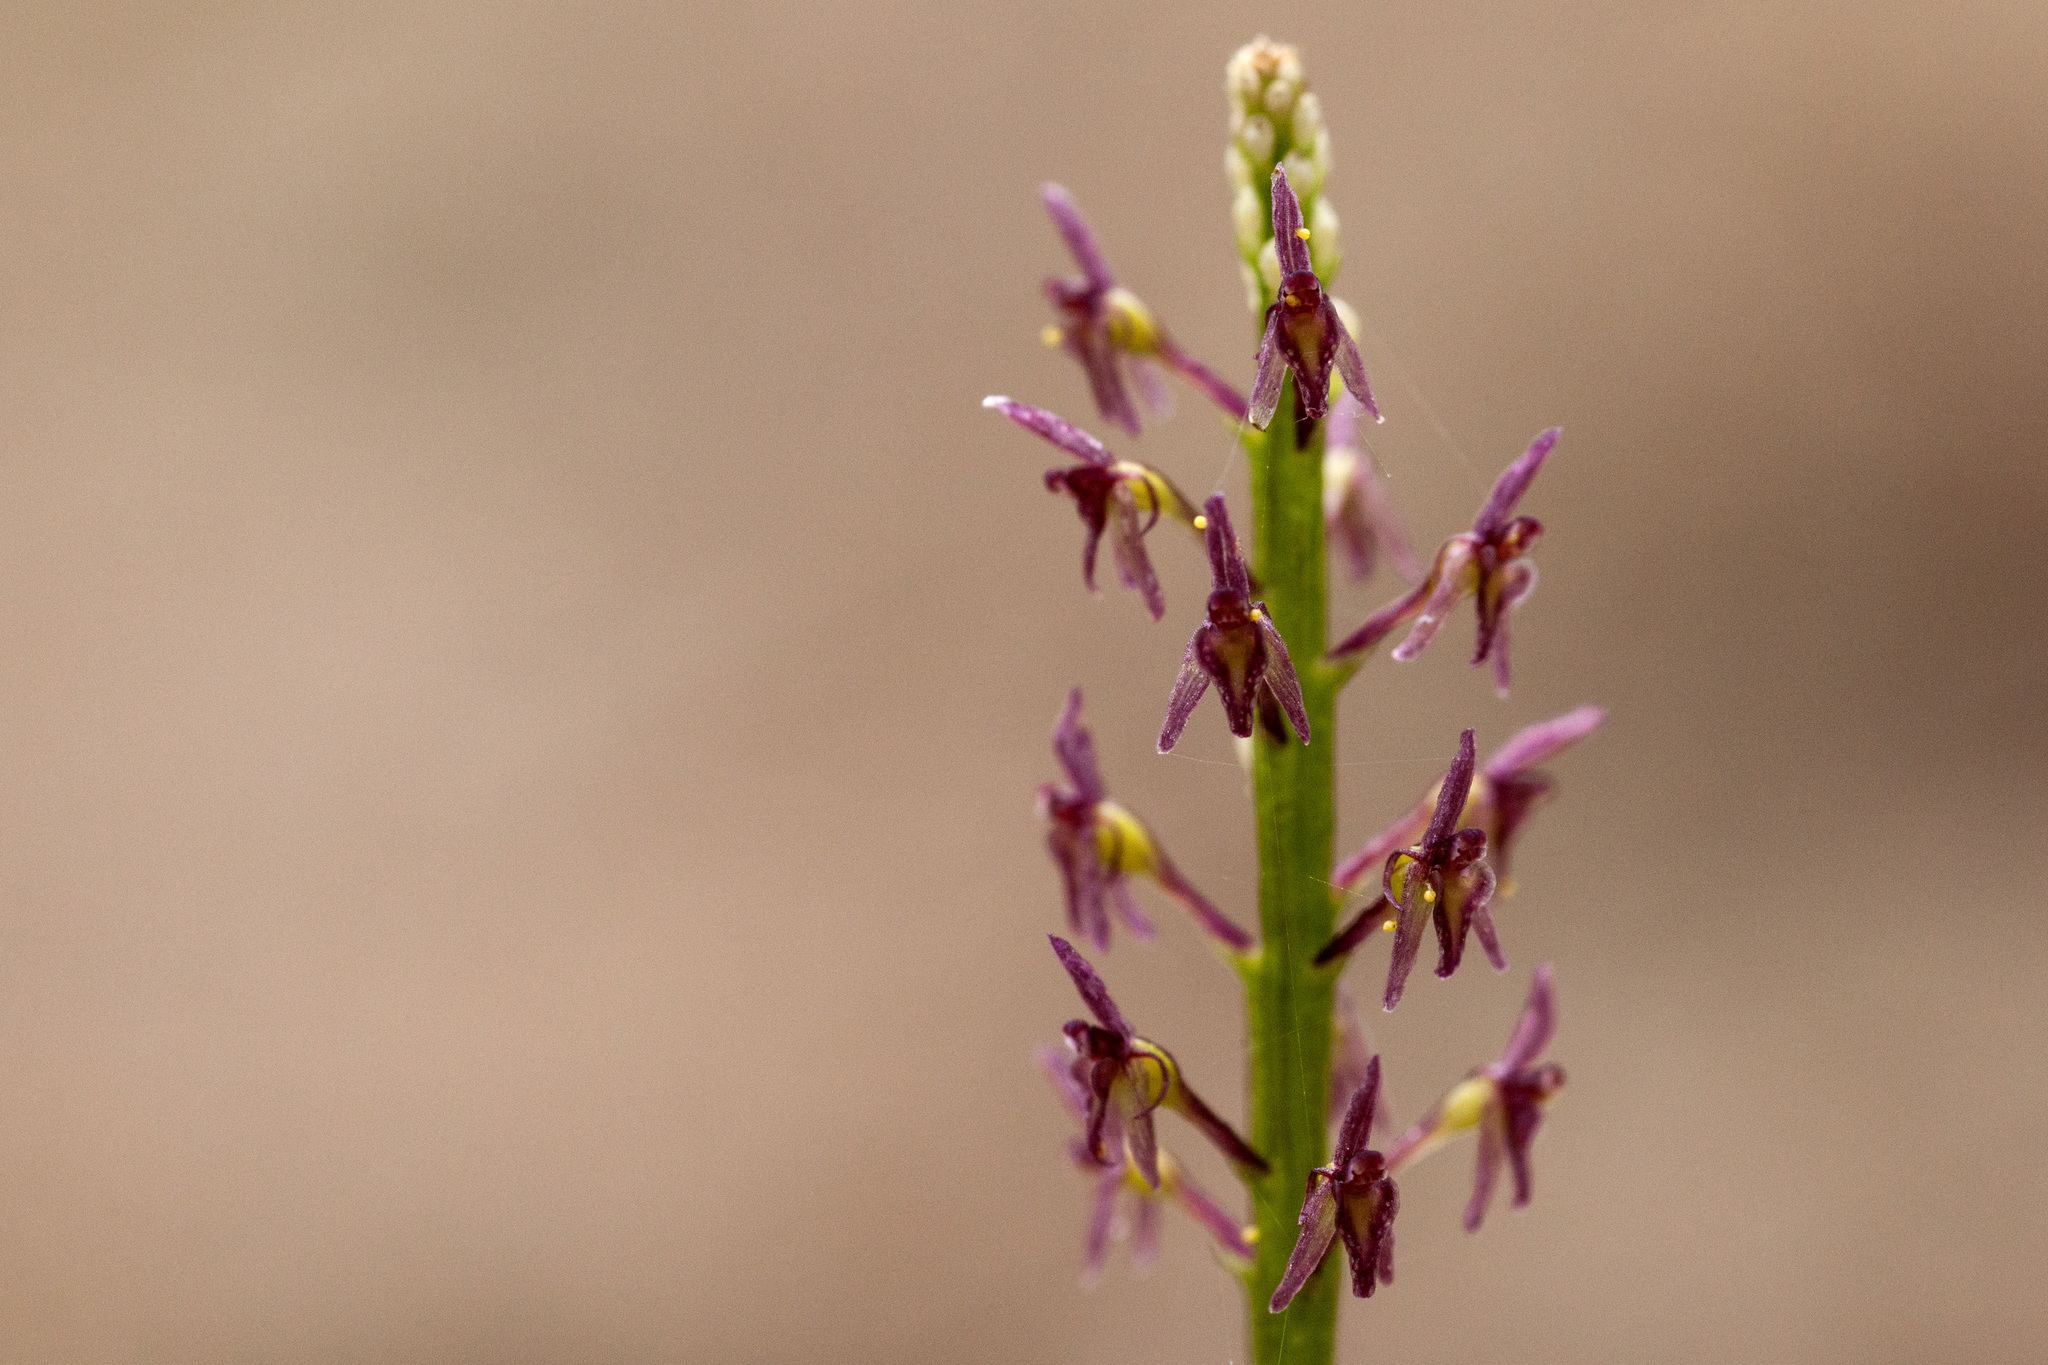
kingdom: Plantae
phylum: Tracheophyta
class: Liliopsida
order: Asparagales
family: Orchidaceae
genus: Tamayorkis
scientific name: Tamayorkis porphyrea
